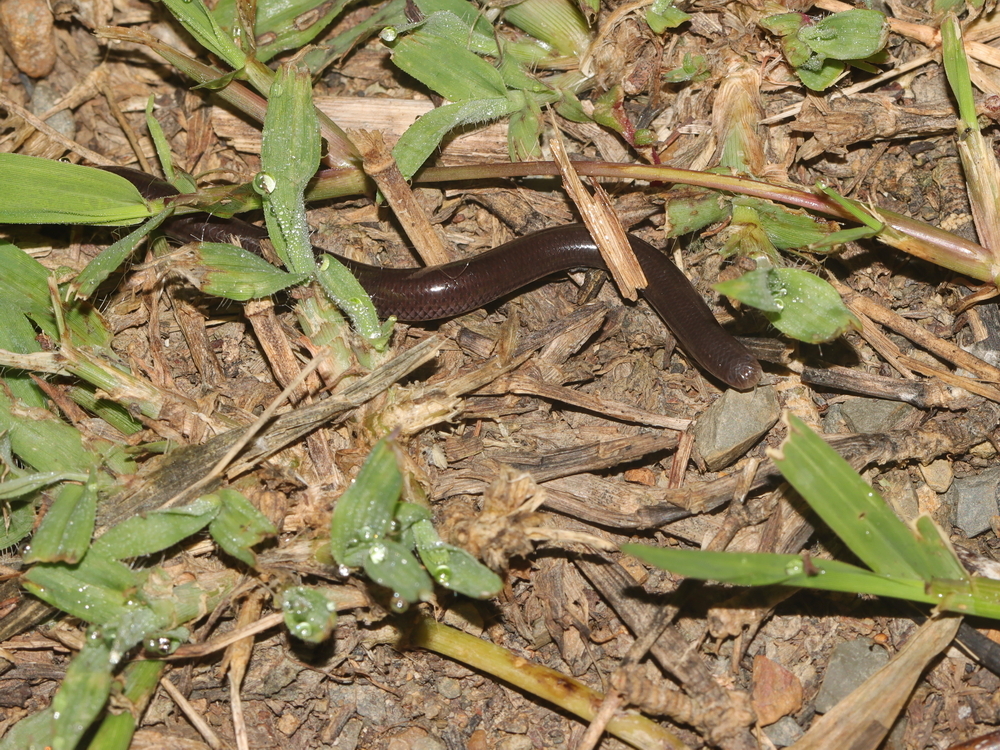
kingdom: Animalia
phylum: Chordata
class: Squamata
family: Typhlopidae
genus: Indotyphlops
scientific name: Indotyphlops braminus
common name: Brahminy blindsnake
